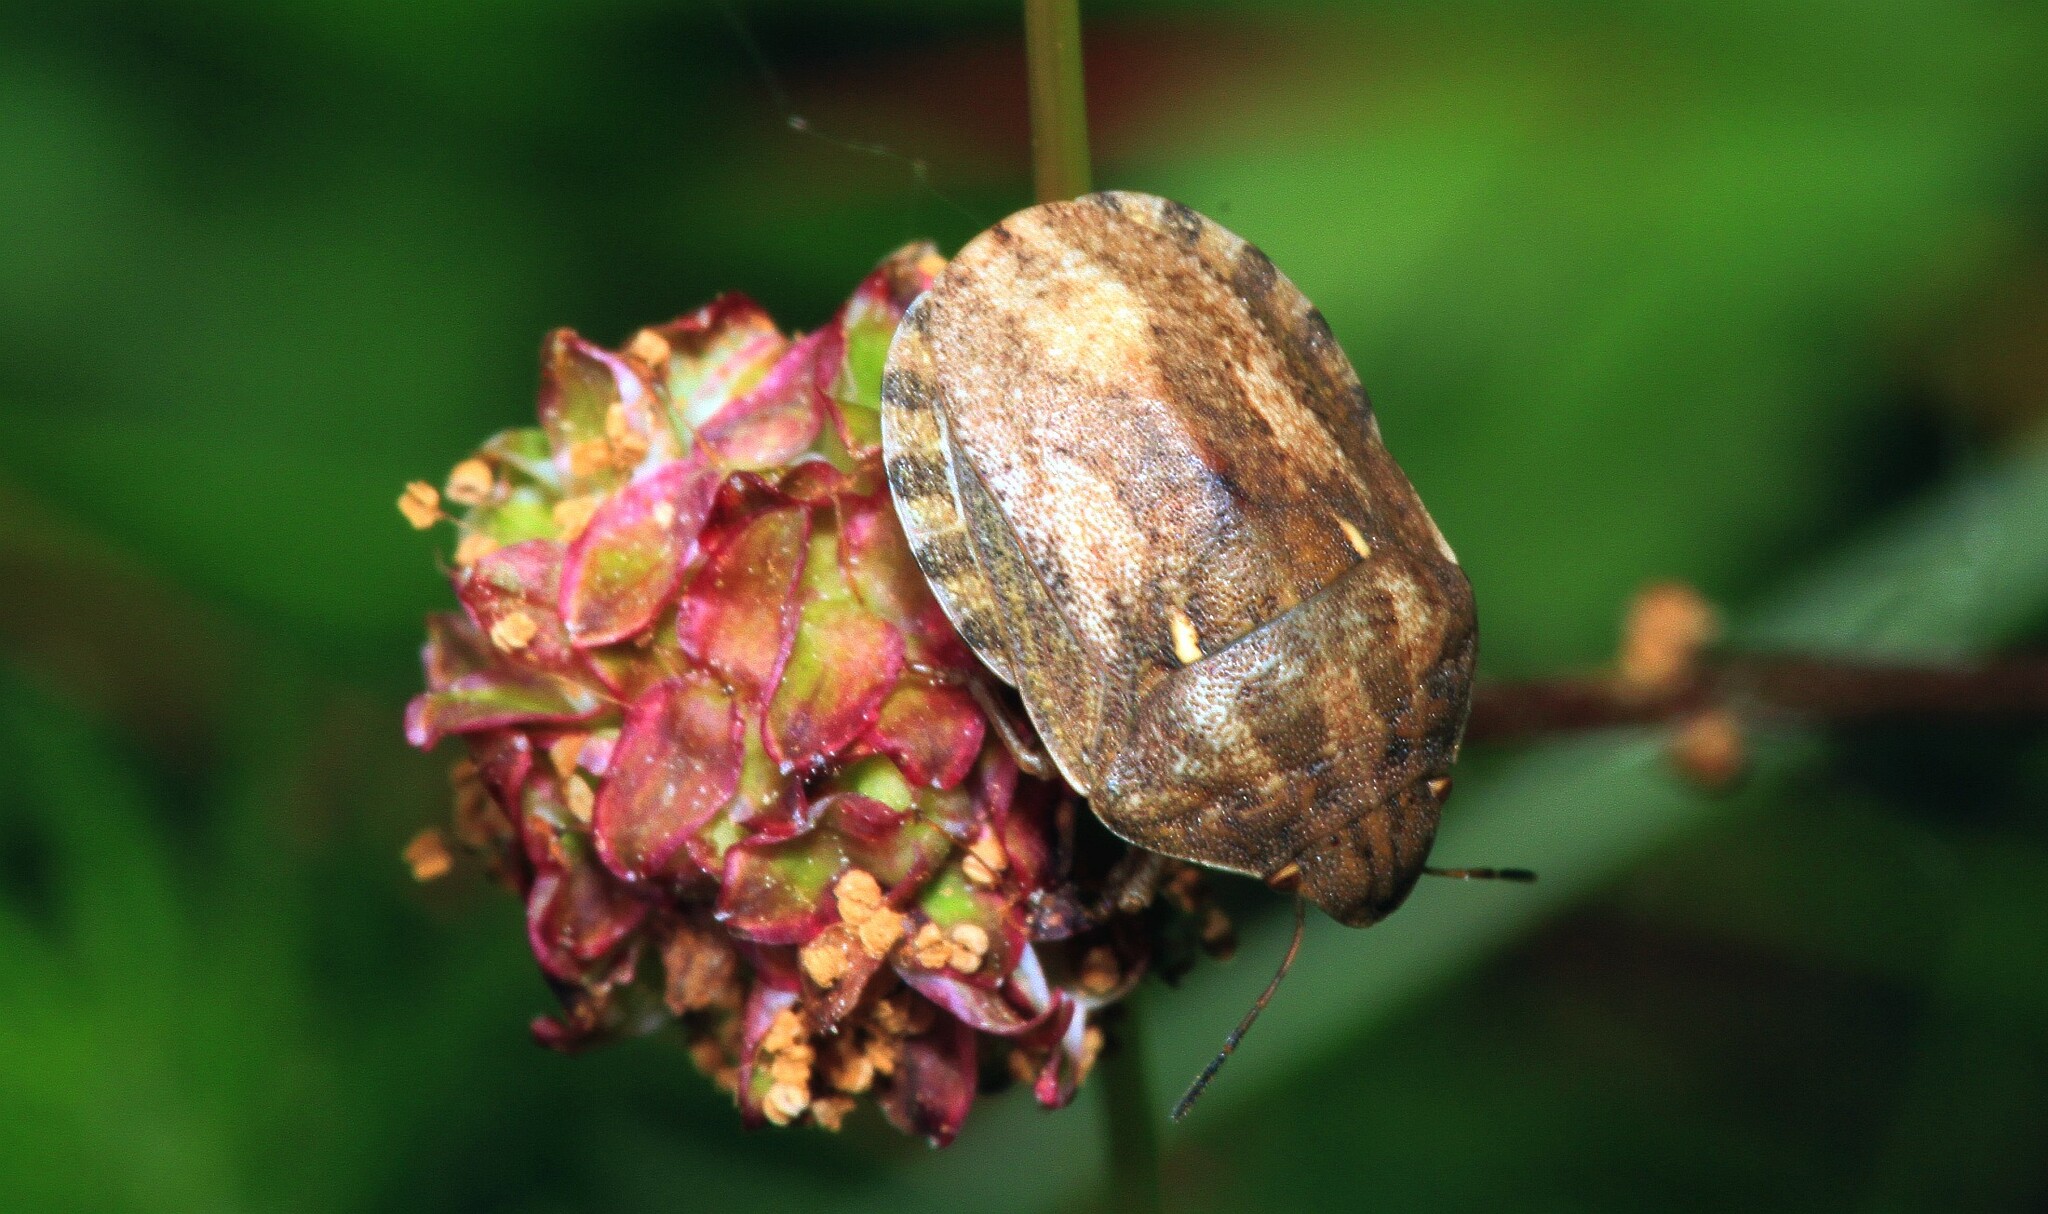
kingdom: Animalia
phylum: Arthropoda
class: Insecta
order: Hemiptera
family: Scutelleridae
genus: Eurygaster
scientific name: Eurygaster maura
